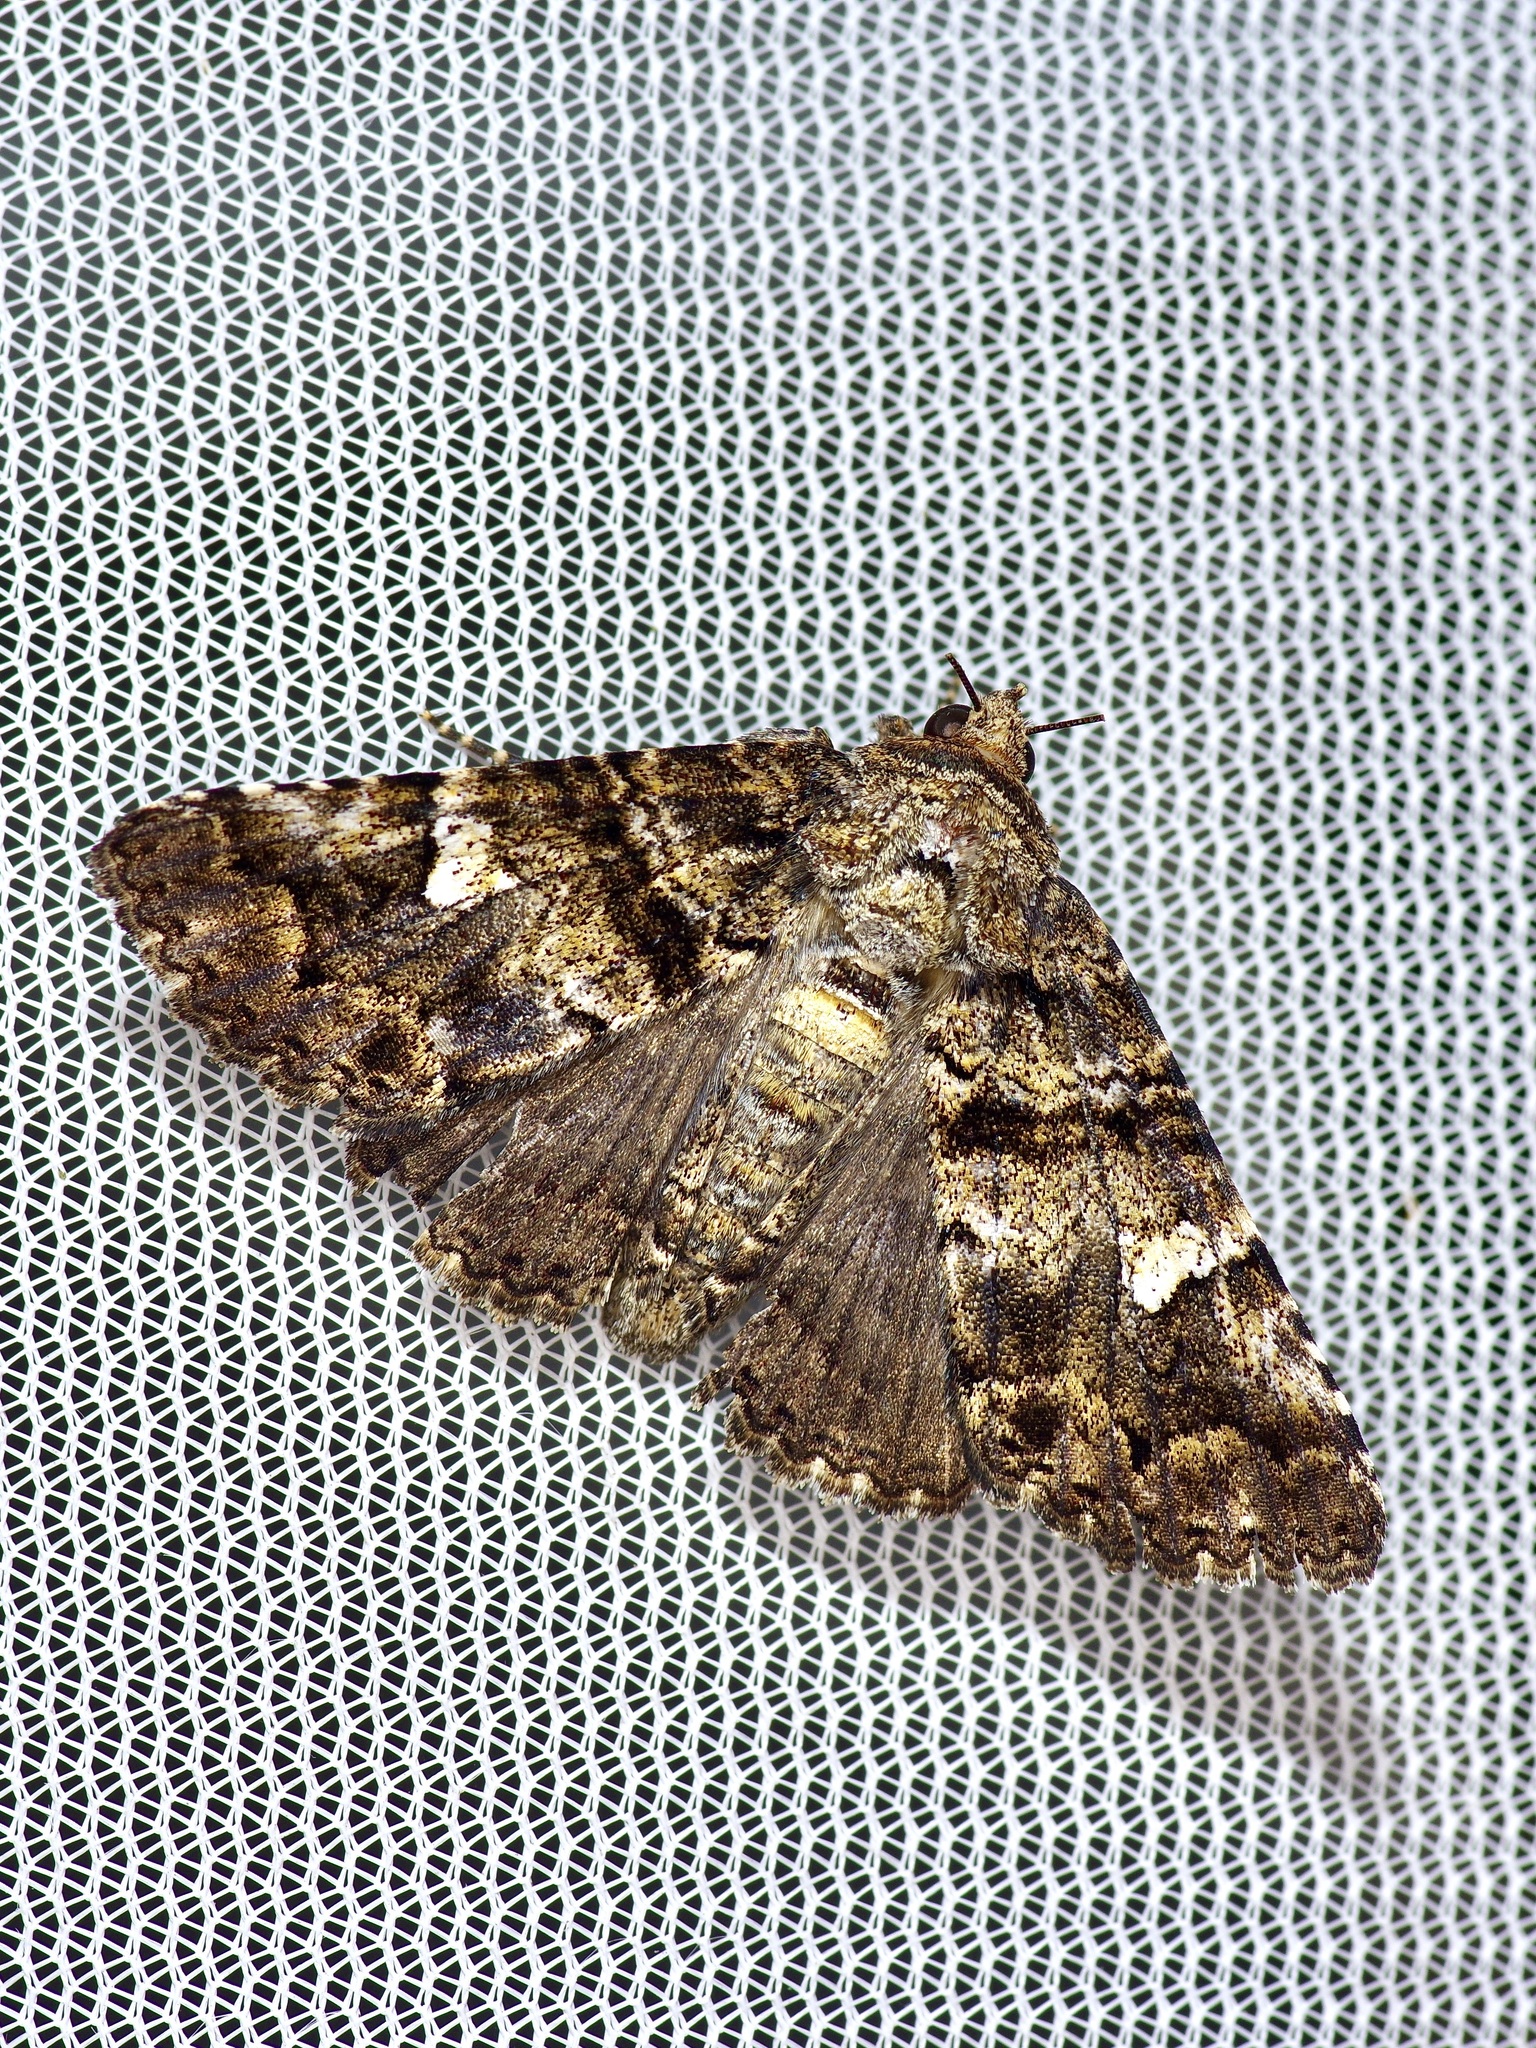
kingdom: Animalia
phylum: Arthropoda
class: Insecta
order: Lepidoptera
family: Erebidae
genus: Metria
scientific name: Metria amella
